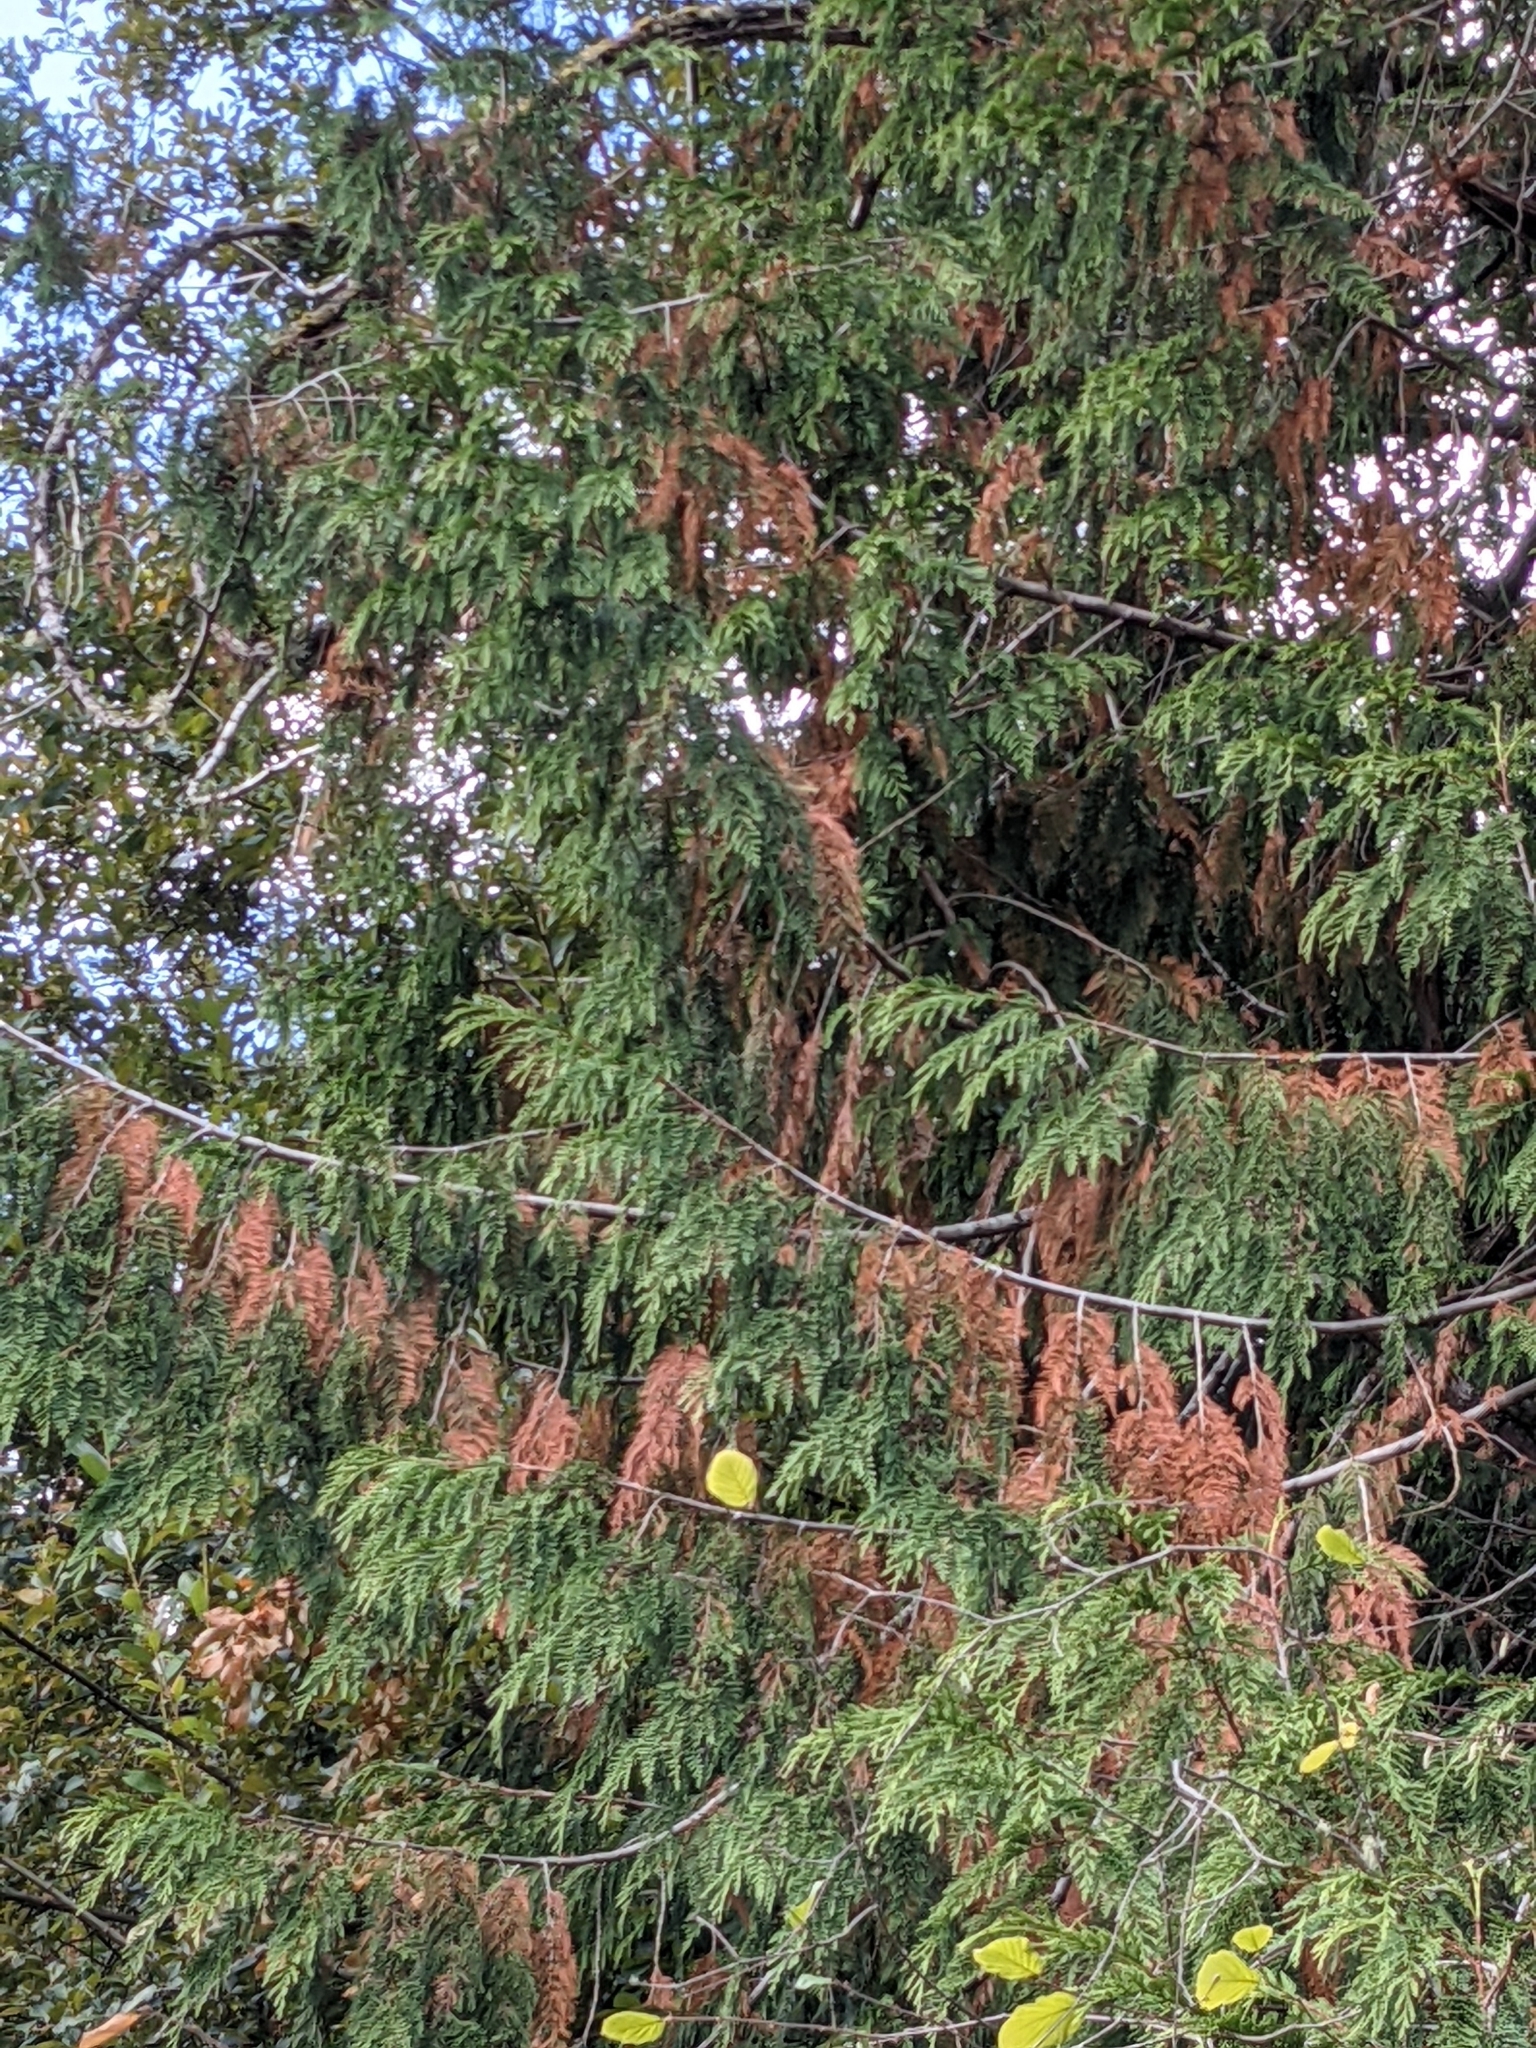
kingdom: Plantae
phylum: Tracheophyta
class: Pinopsida
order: Pinales
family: Cupressaceae
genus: Thuja
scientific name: Thuja plicata
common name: Western red-cedar
